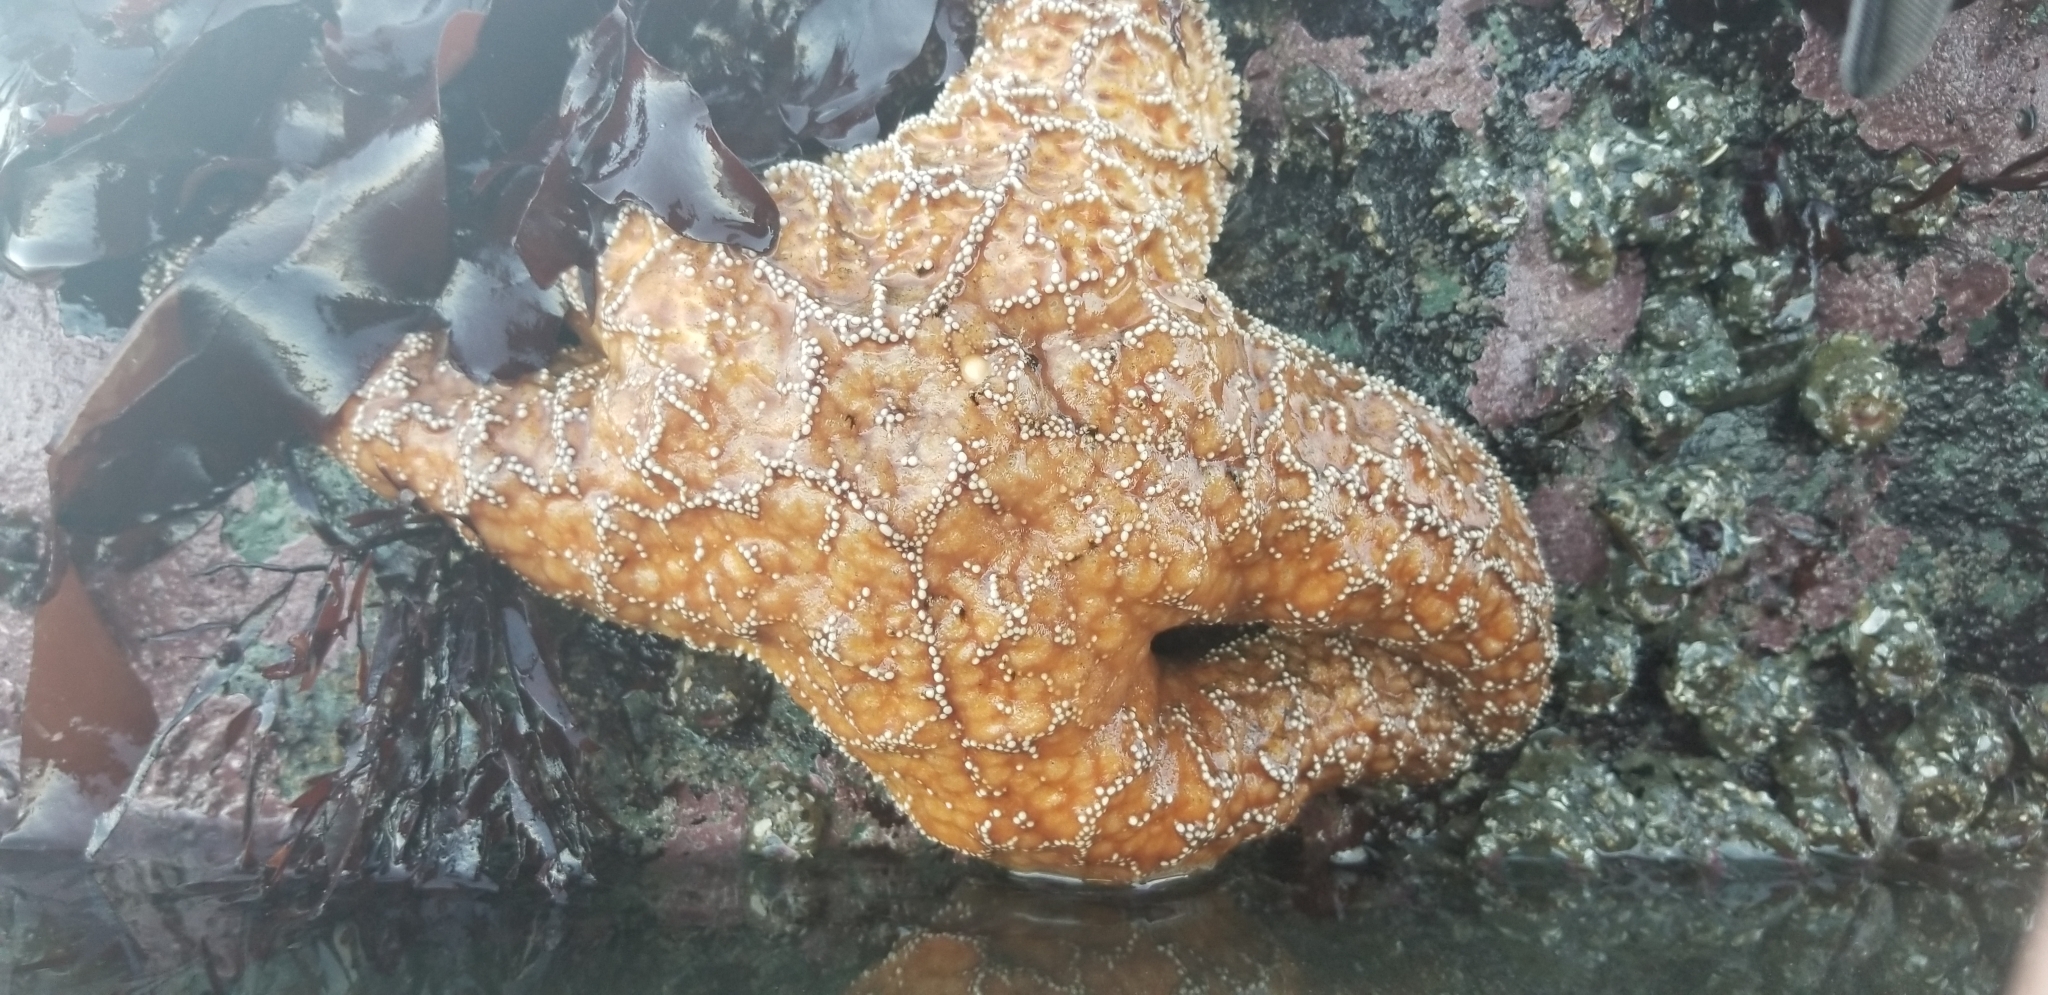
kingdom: Animalia
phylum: Echinodermata
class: Asteroidea
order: Forcipulatida
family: Asteriidae
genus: Pisaster
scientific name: Pisaster ochraceus
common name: Ochre stars
